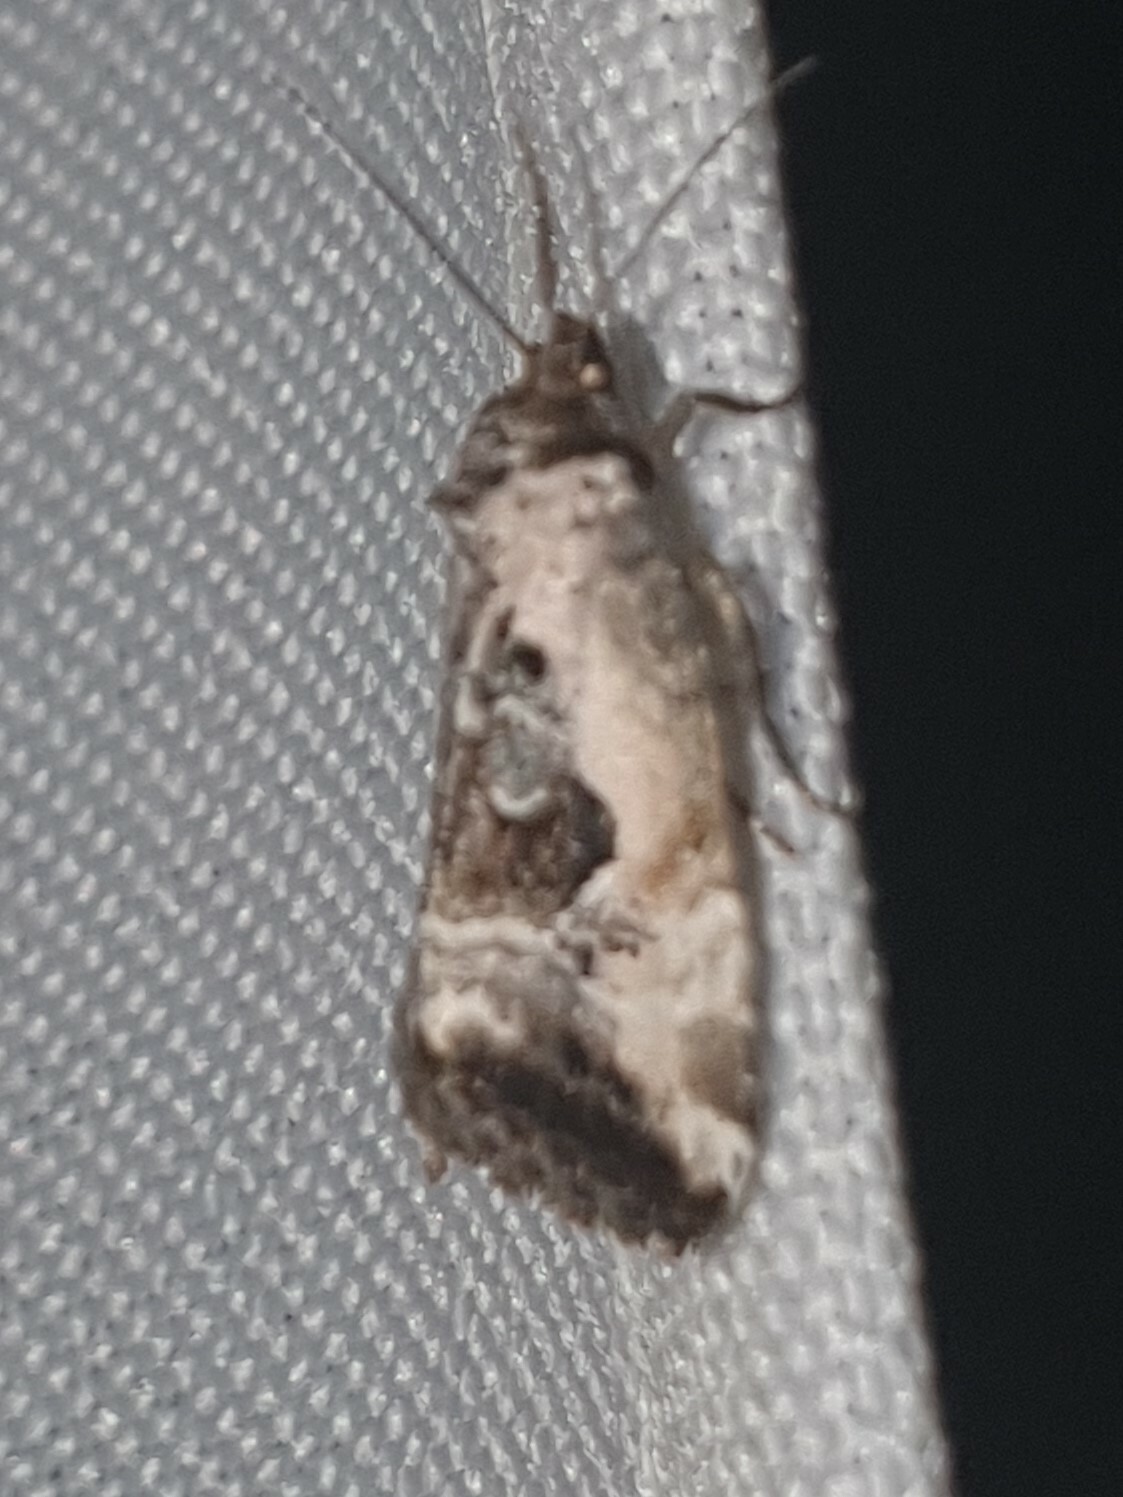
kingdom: Animalia
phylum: Arthropoda
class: Insecta
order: Lepidoptera
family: Noctuidae
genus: Elaphria
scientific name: Elaphria venustula
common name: Rosy marbled
